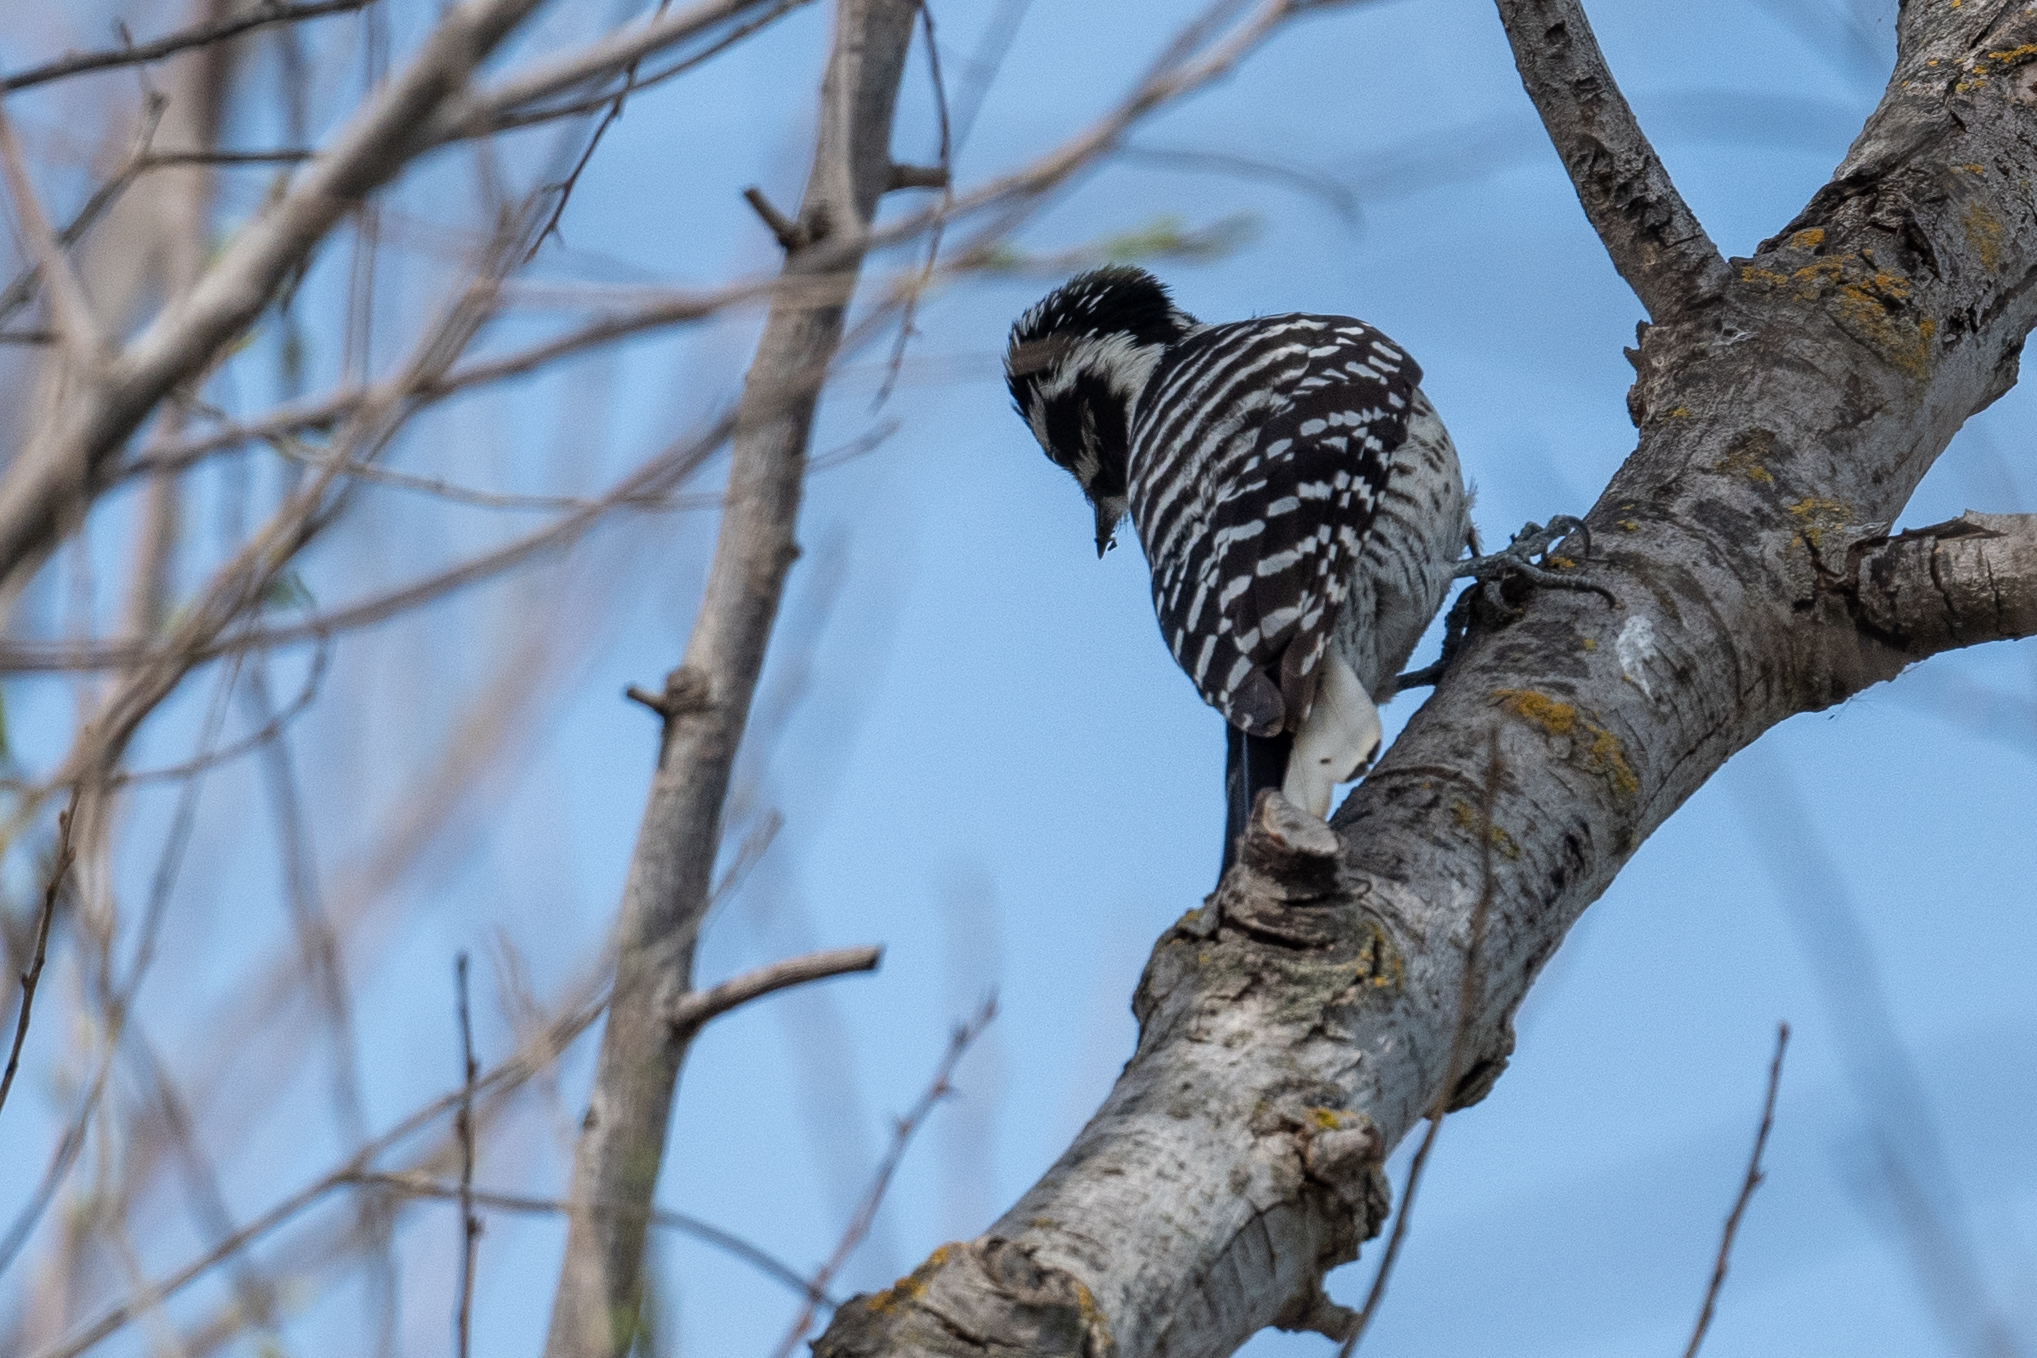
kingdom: Animalia
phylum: Chordata
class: Aves
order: Piciformes
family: Picidae
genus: Dryobates
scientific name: Dryobates nuttallii
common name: Nuttall's woodpecker
